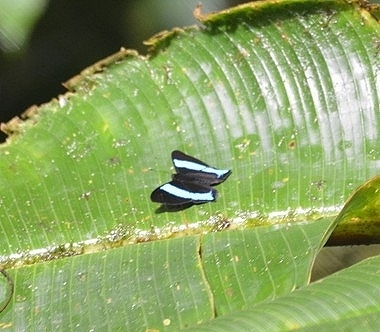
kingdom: Animalia
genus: Mesosemia
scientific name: Mesosemia grandis
